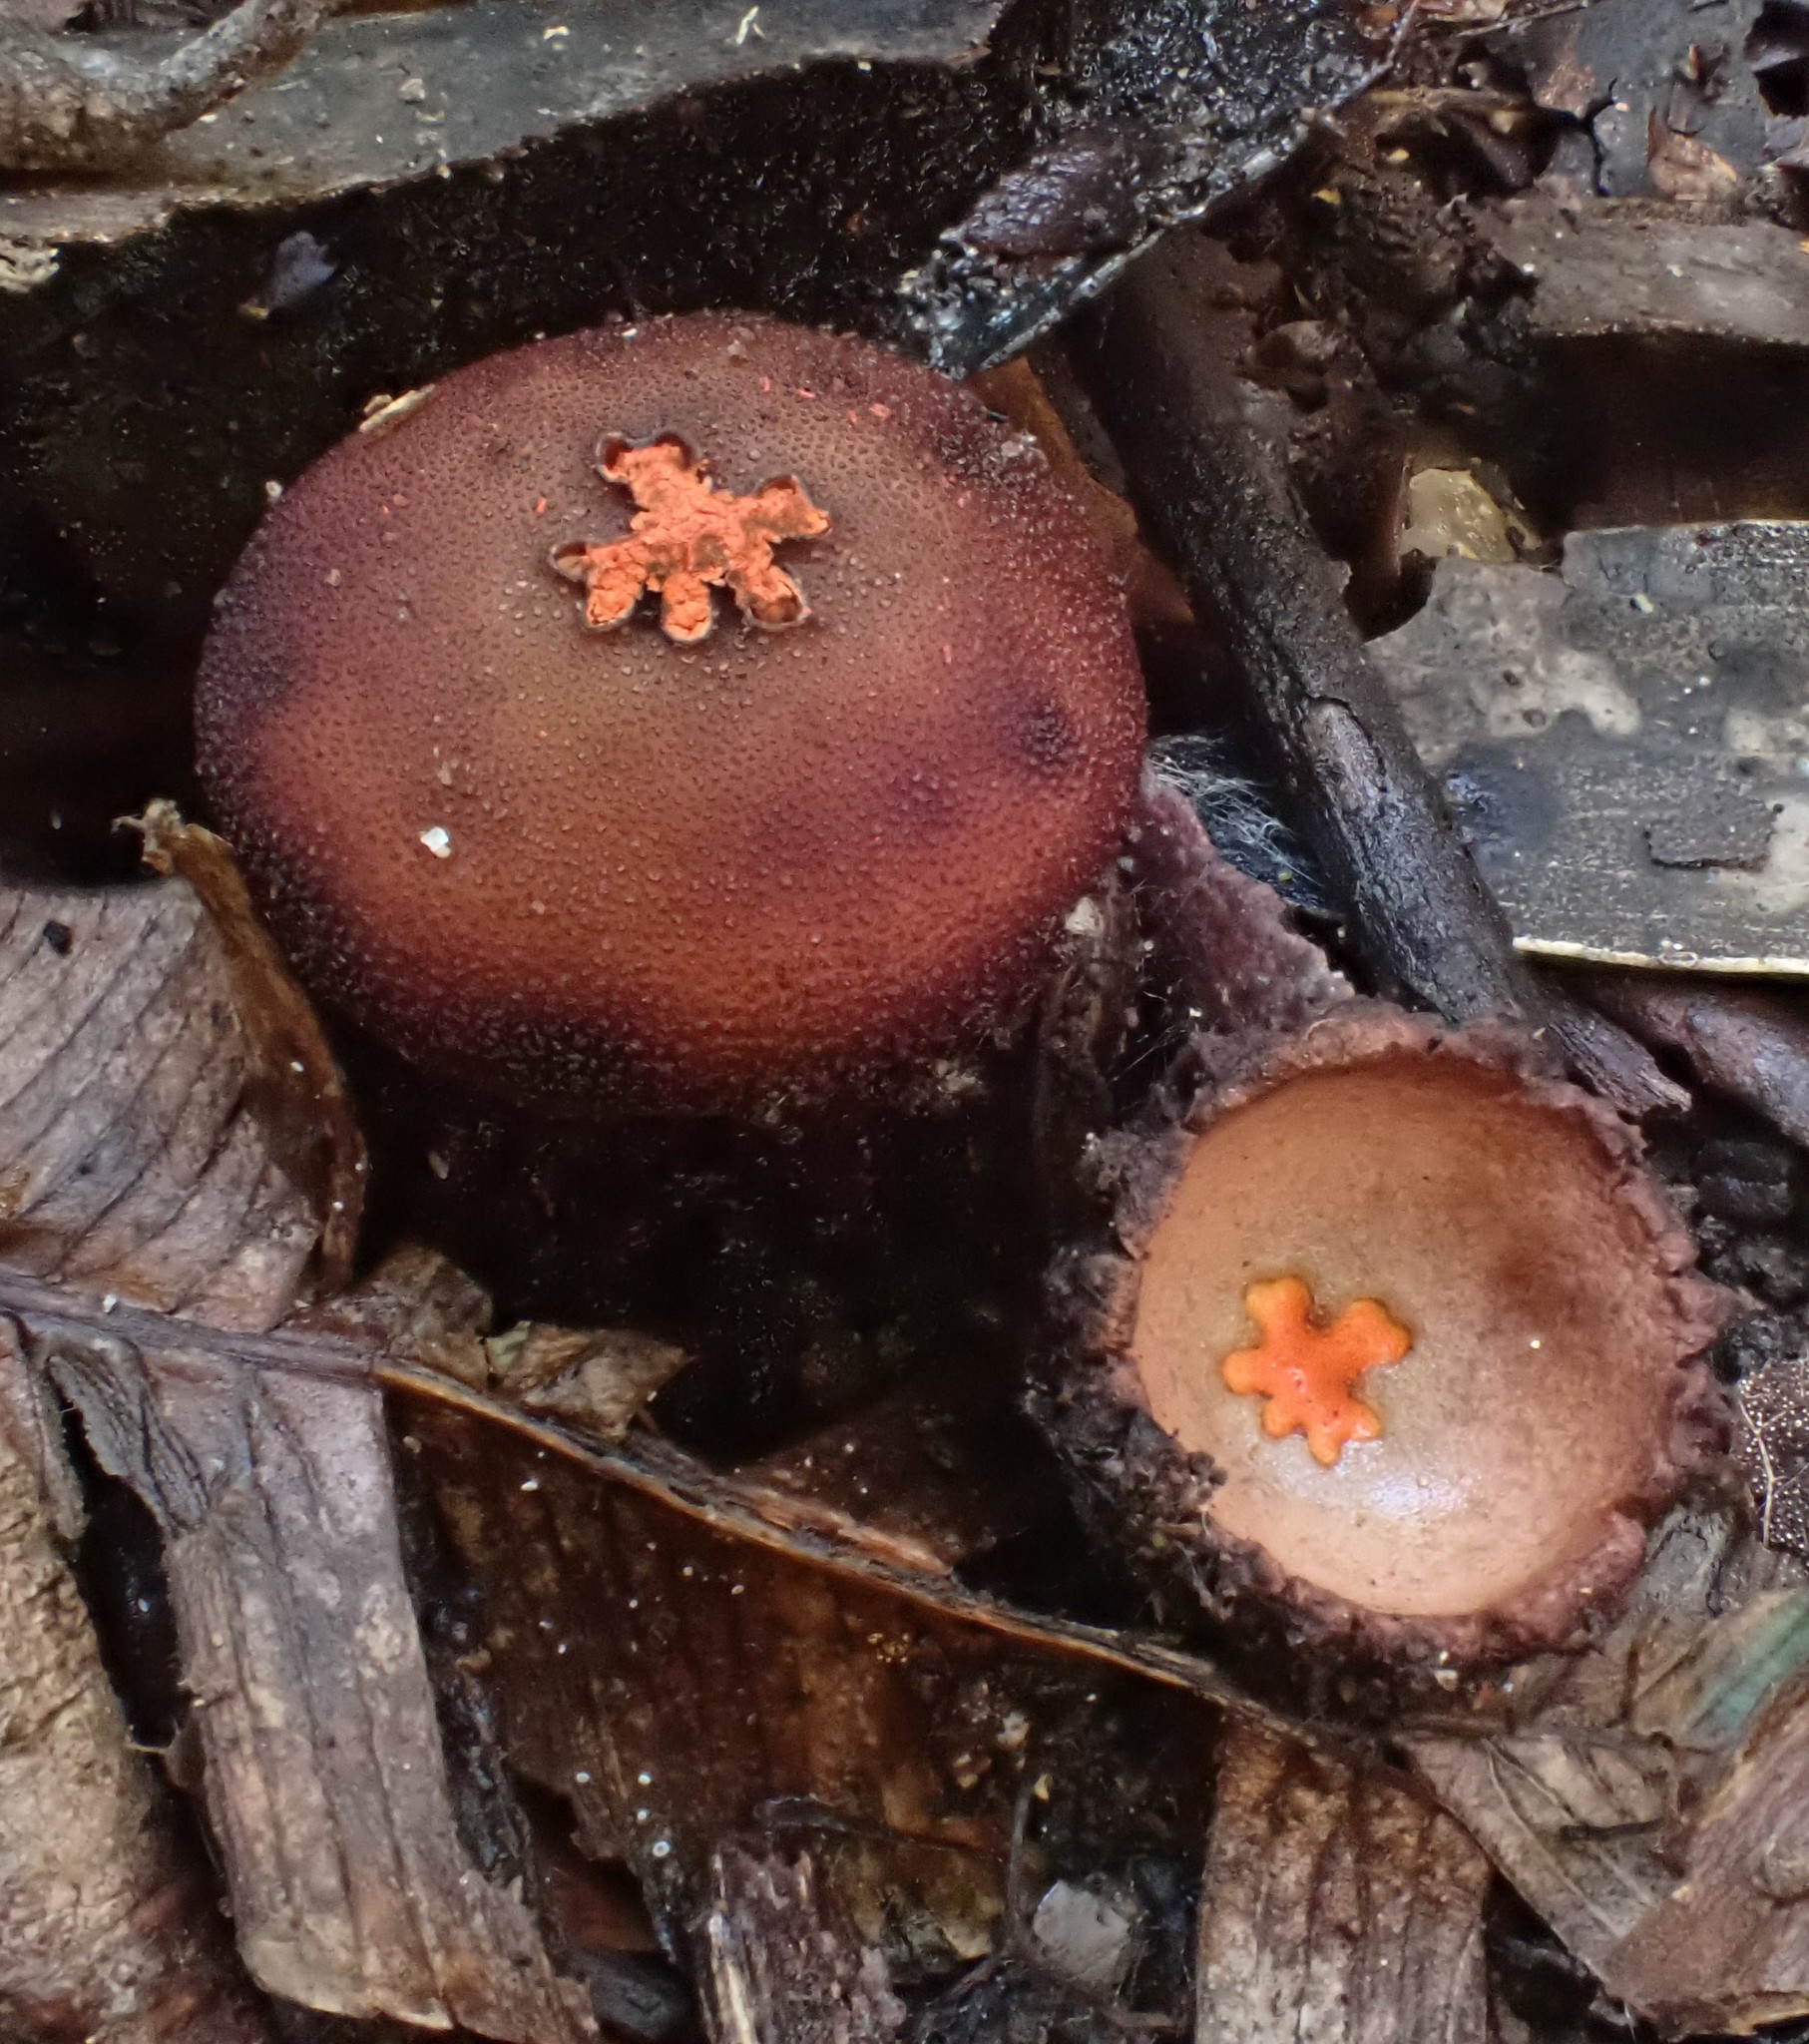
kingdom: Fungi
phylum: Basidiomycota
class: Agaricomycetes
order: Boletales
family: Calostomataceae
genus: Calostoma
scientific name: Calostoma fuscum
